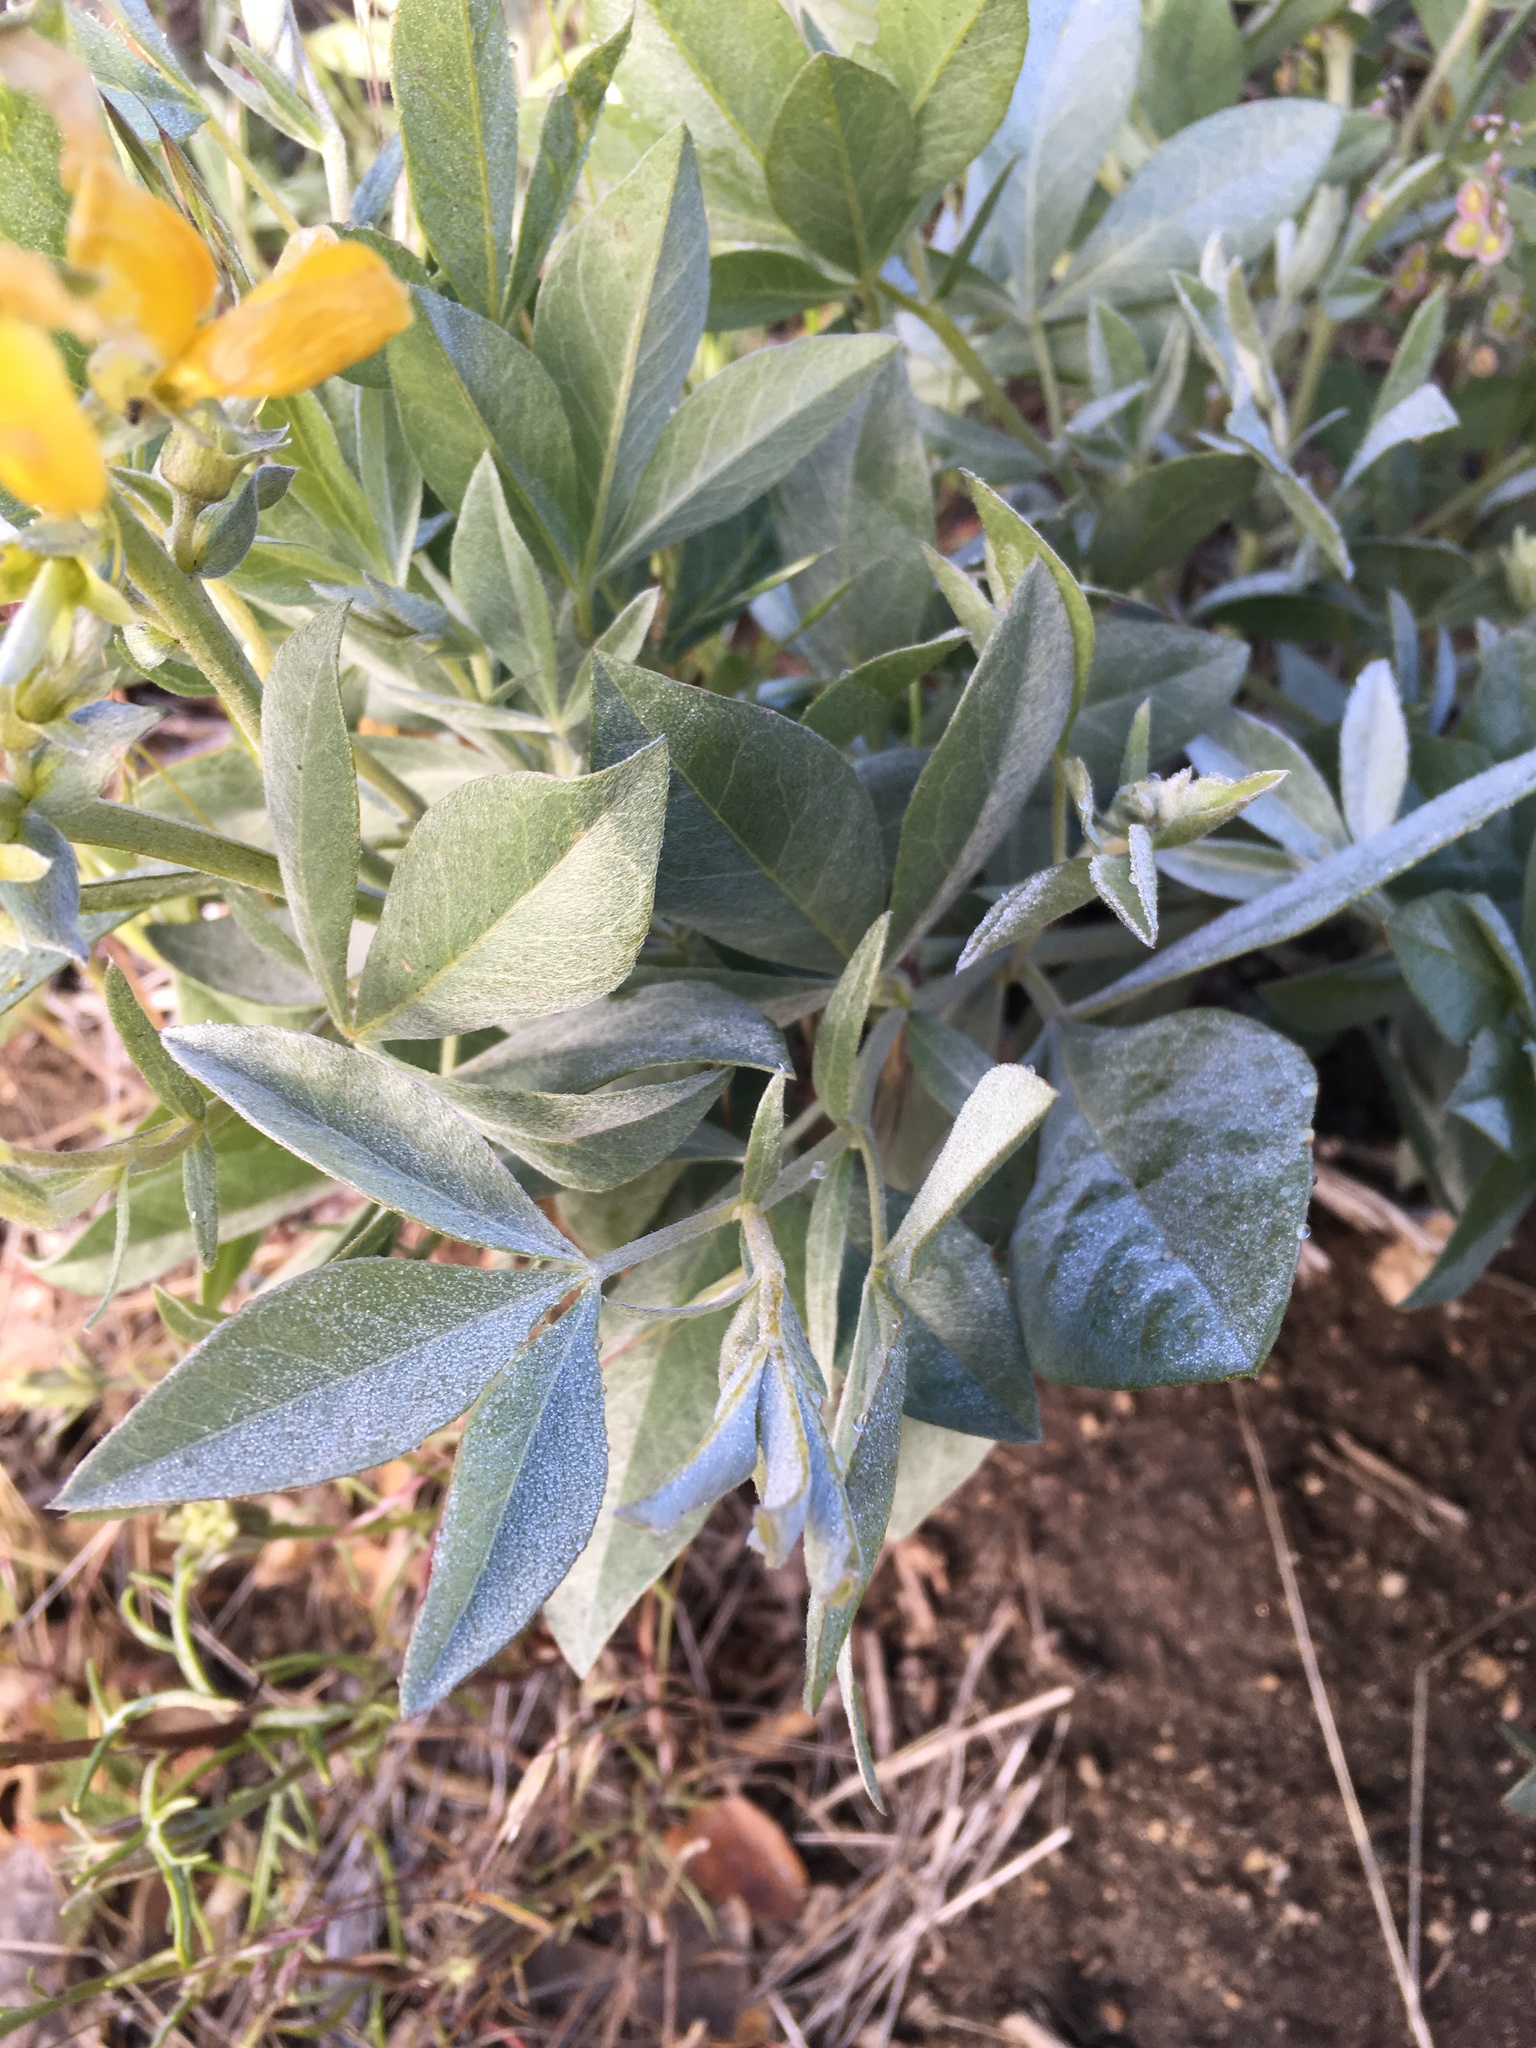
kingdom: Plantae
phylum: Tracheophyta
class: Magnoliopsida
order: Fabales
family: Fabaceae
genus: Thermopsis
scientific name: Thermopsis californica
